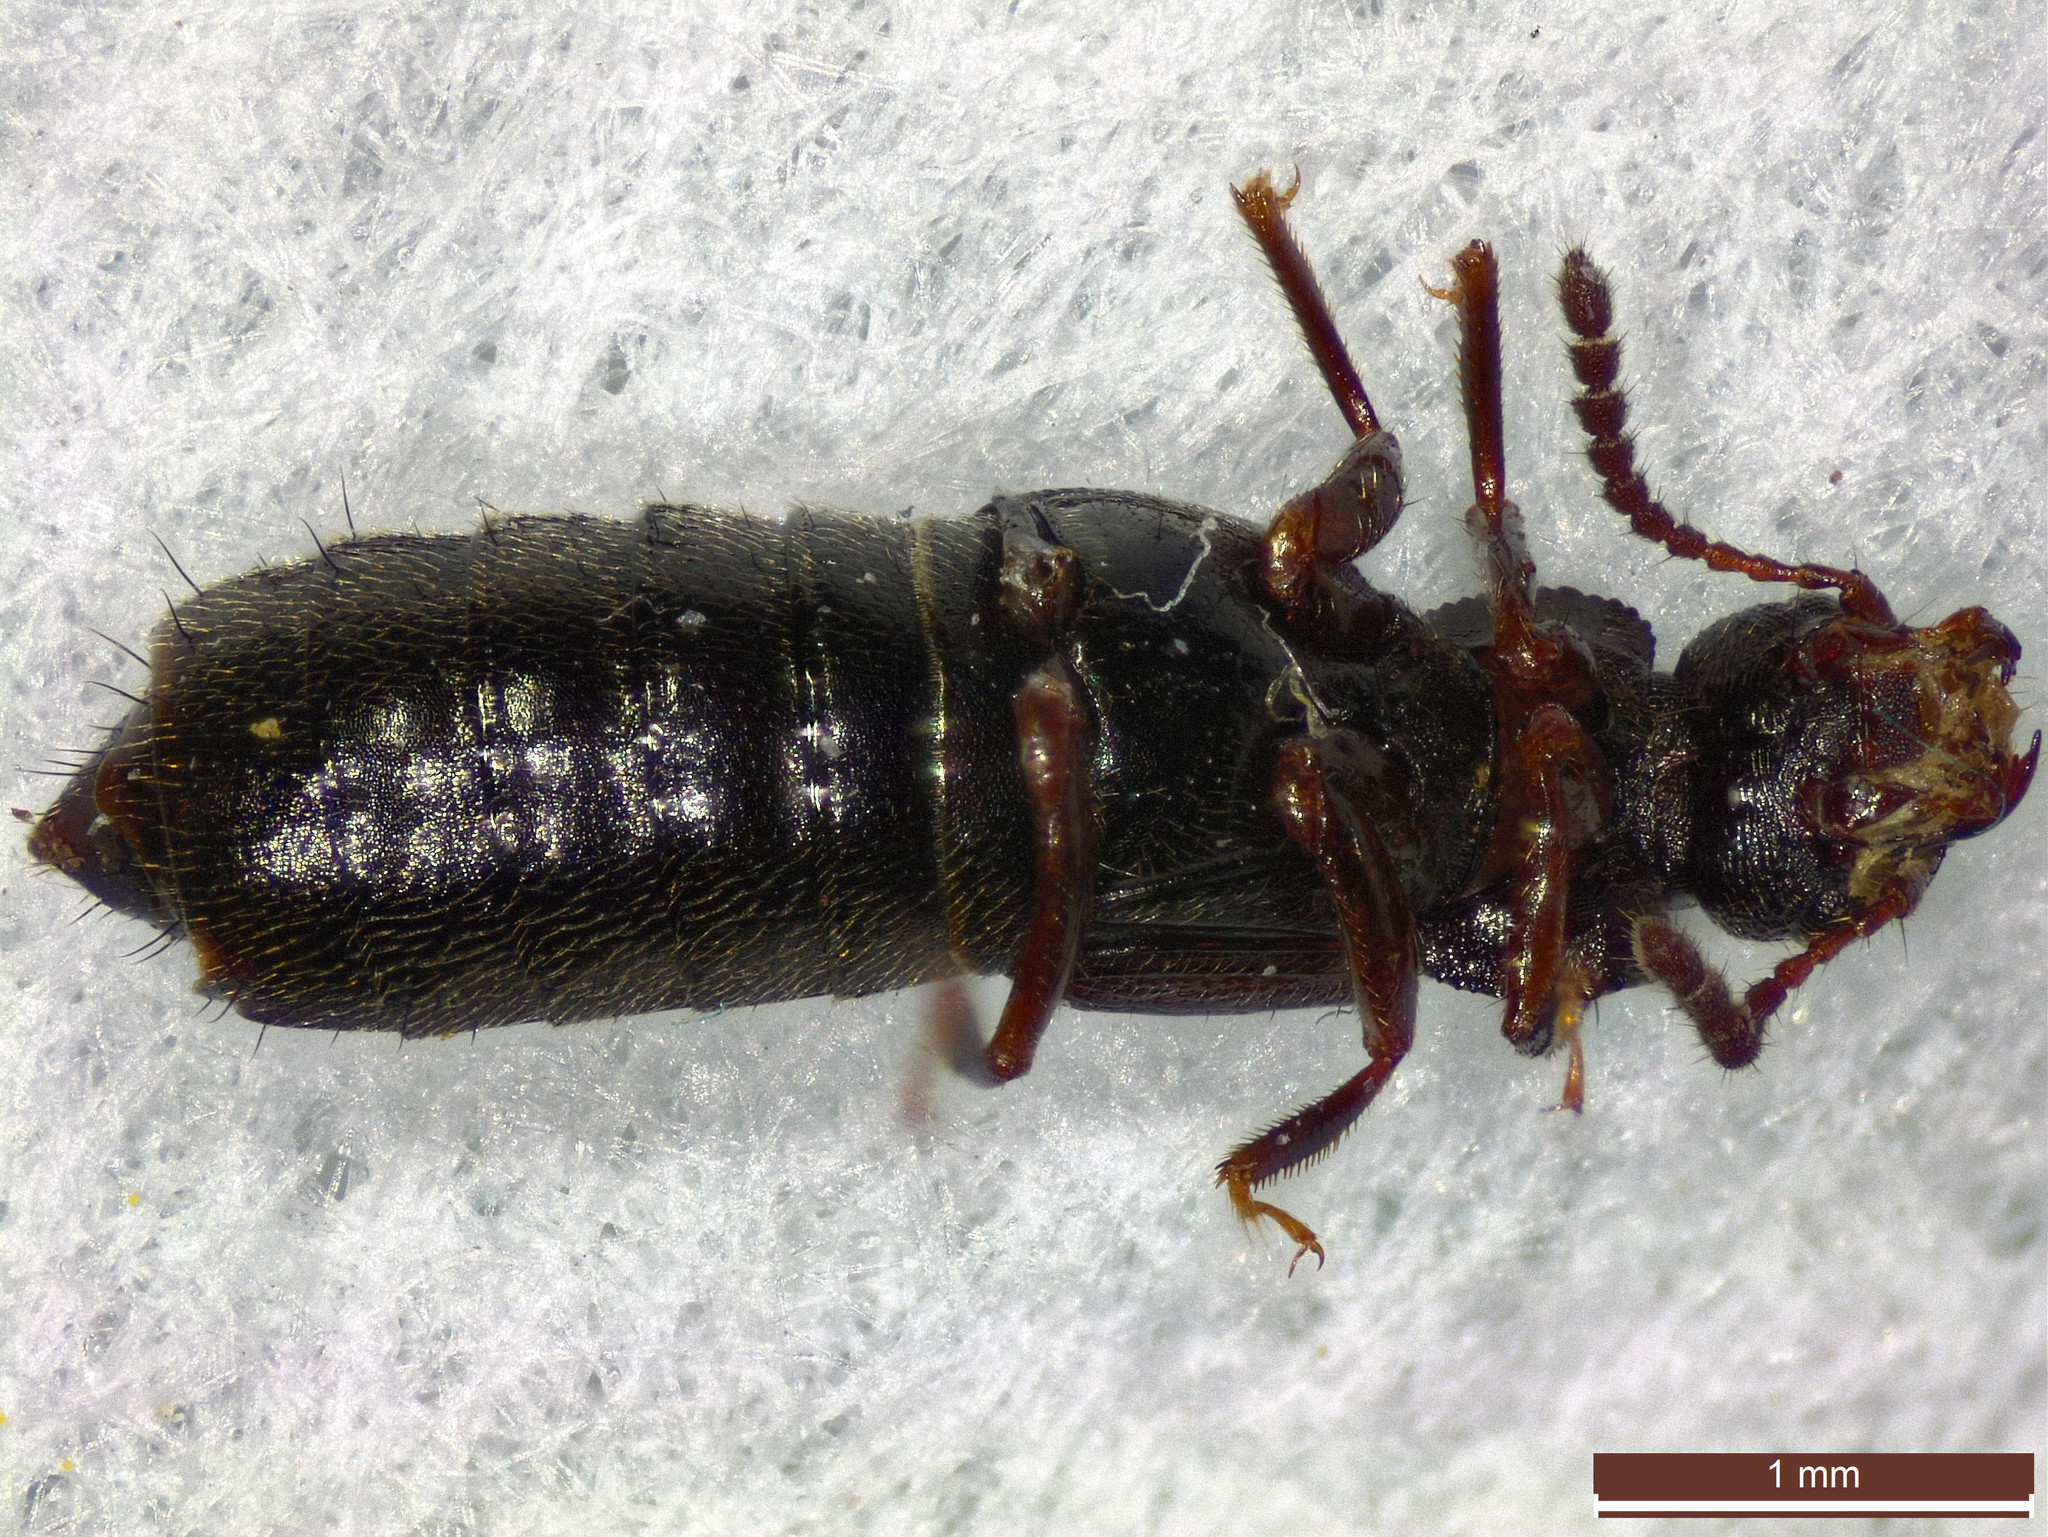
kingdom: Animalia
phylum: Arthropoda
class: Insecta
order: Coleoptera
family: Staphylinidae
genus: Anotylus
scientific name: Anotylus rugosus
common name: Rove beetle
